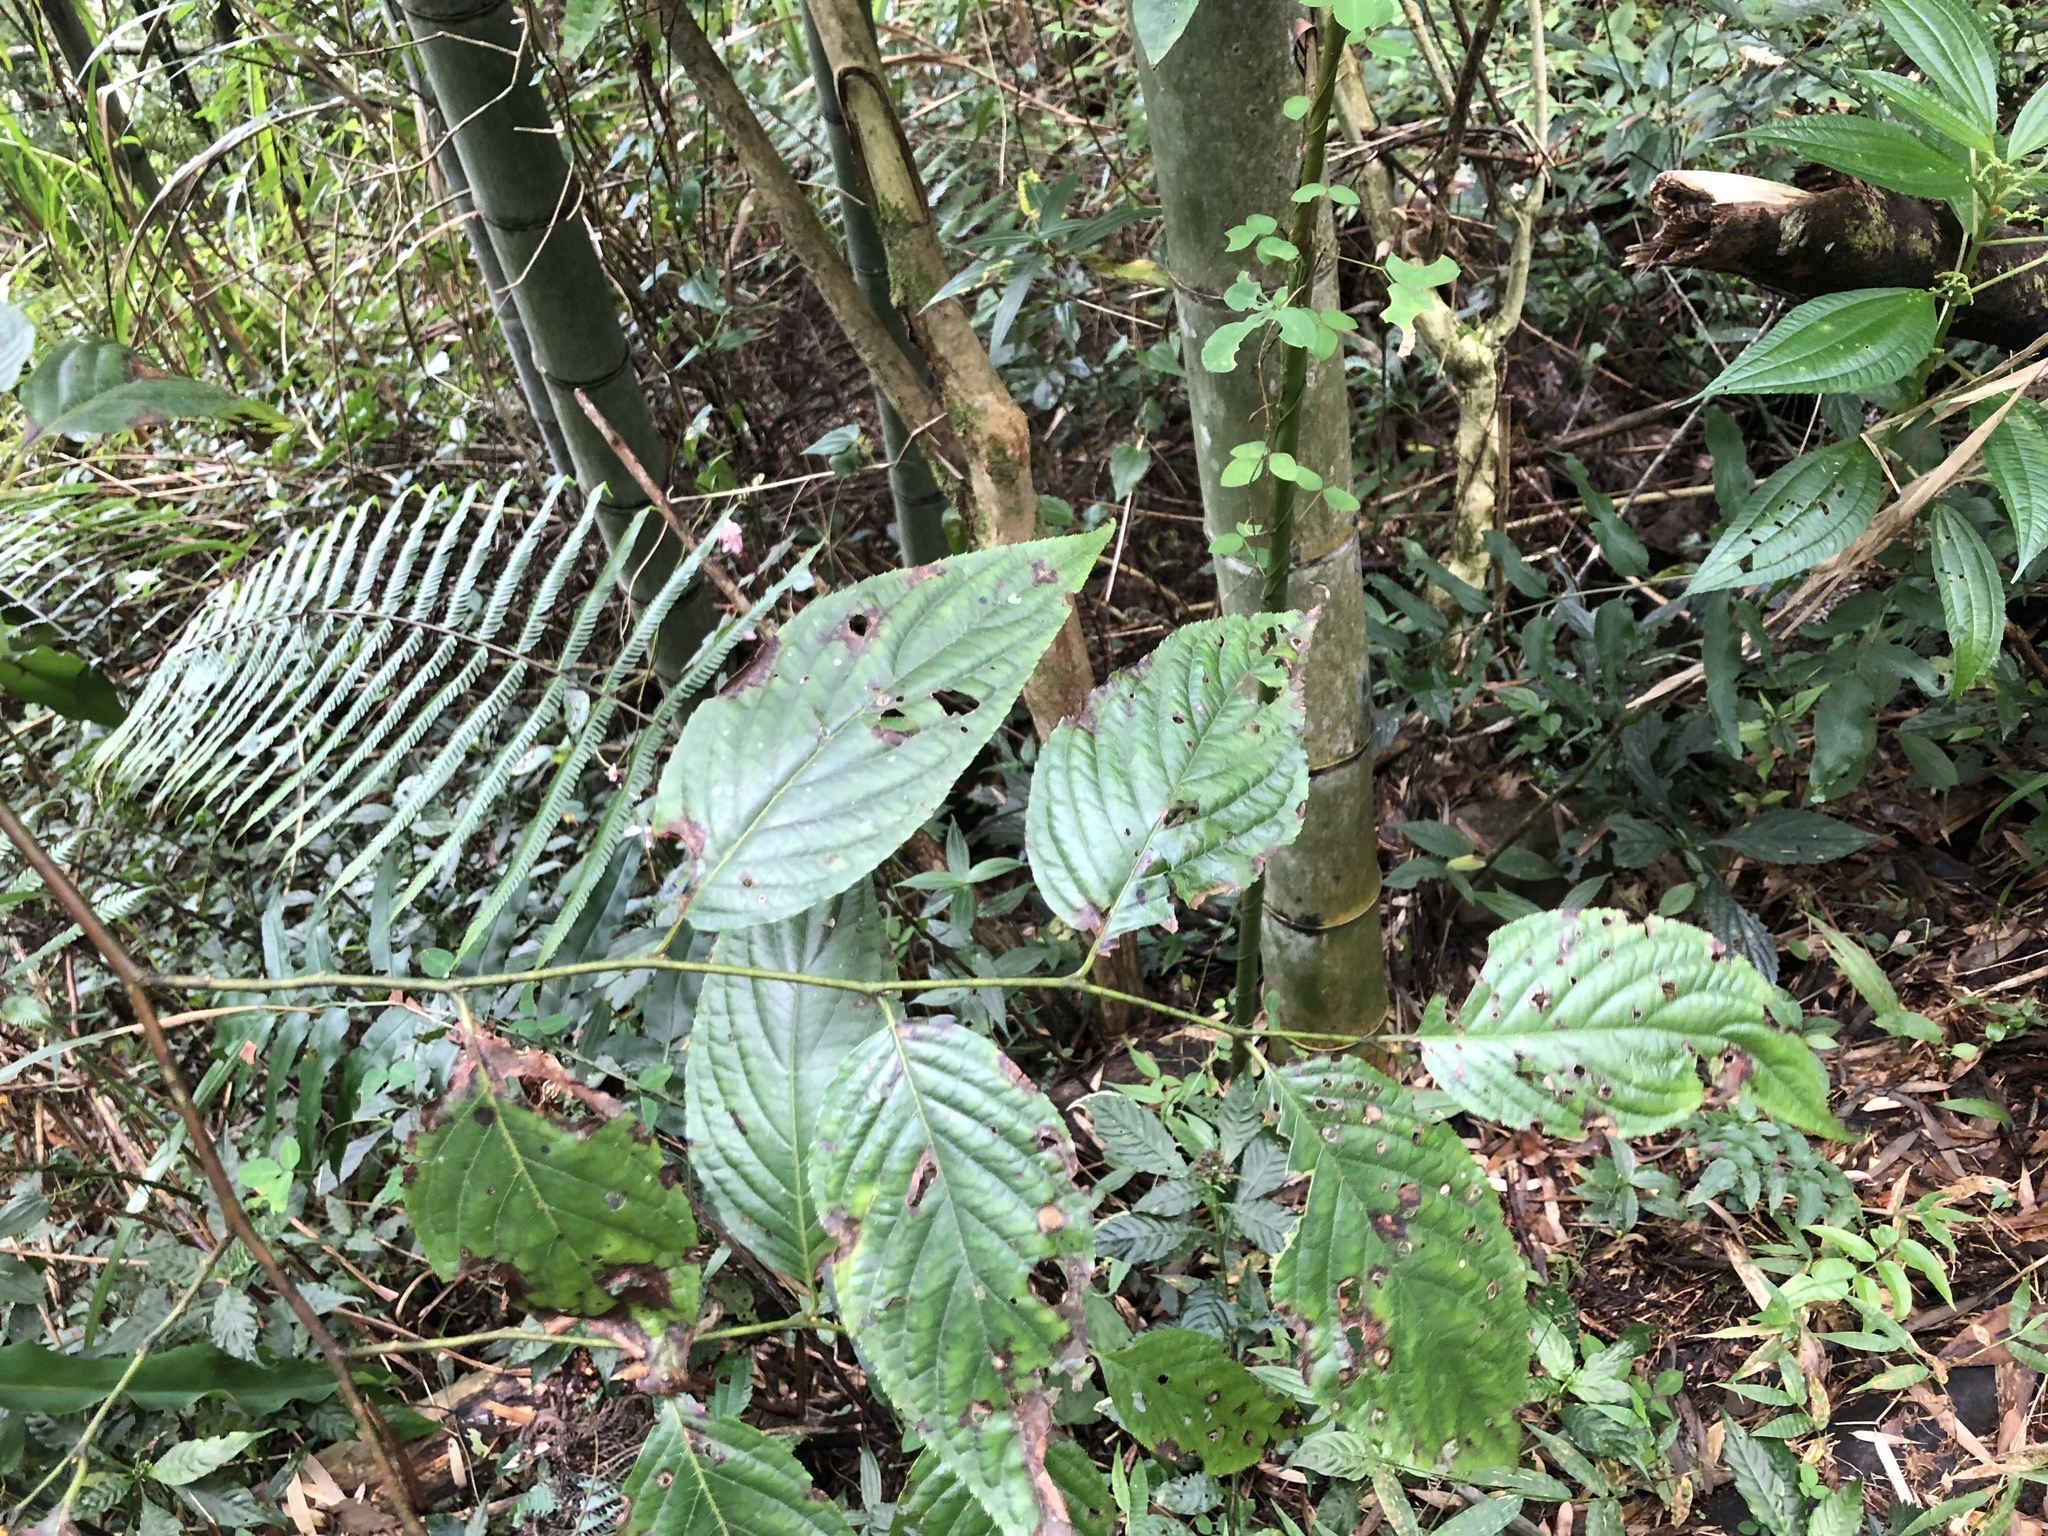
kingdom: Plantae
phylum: Tracheophyta
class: Magnoliopsida
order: Huerteales
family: Dipentodontaceae
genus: Perrottetia
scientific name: Perrottetia arisanensis
